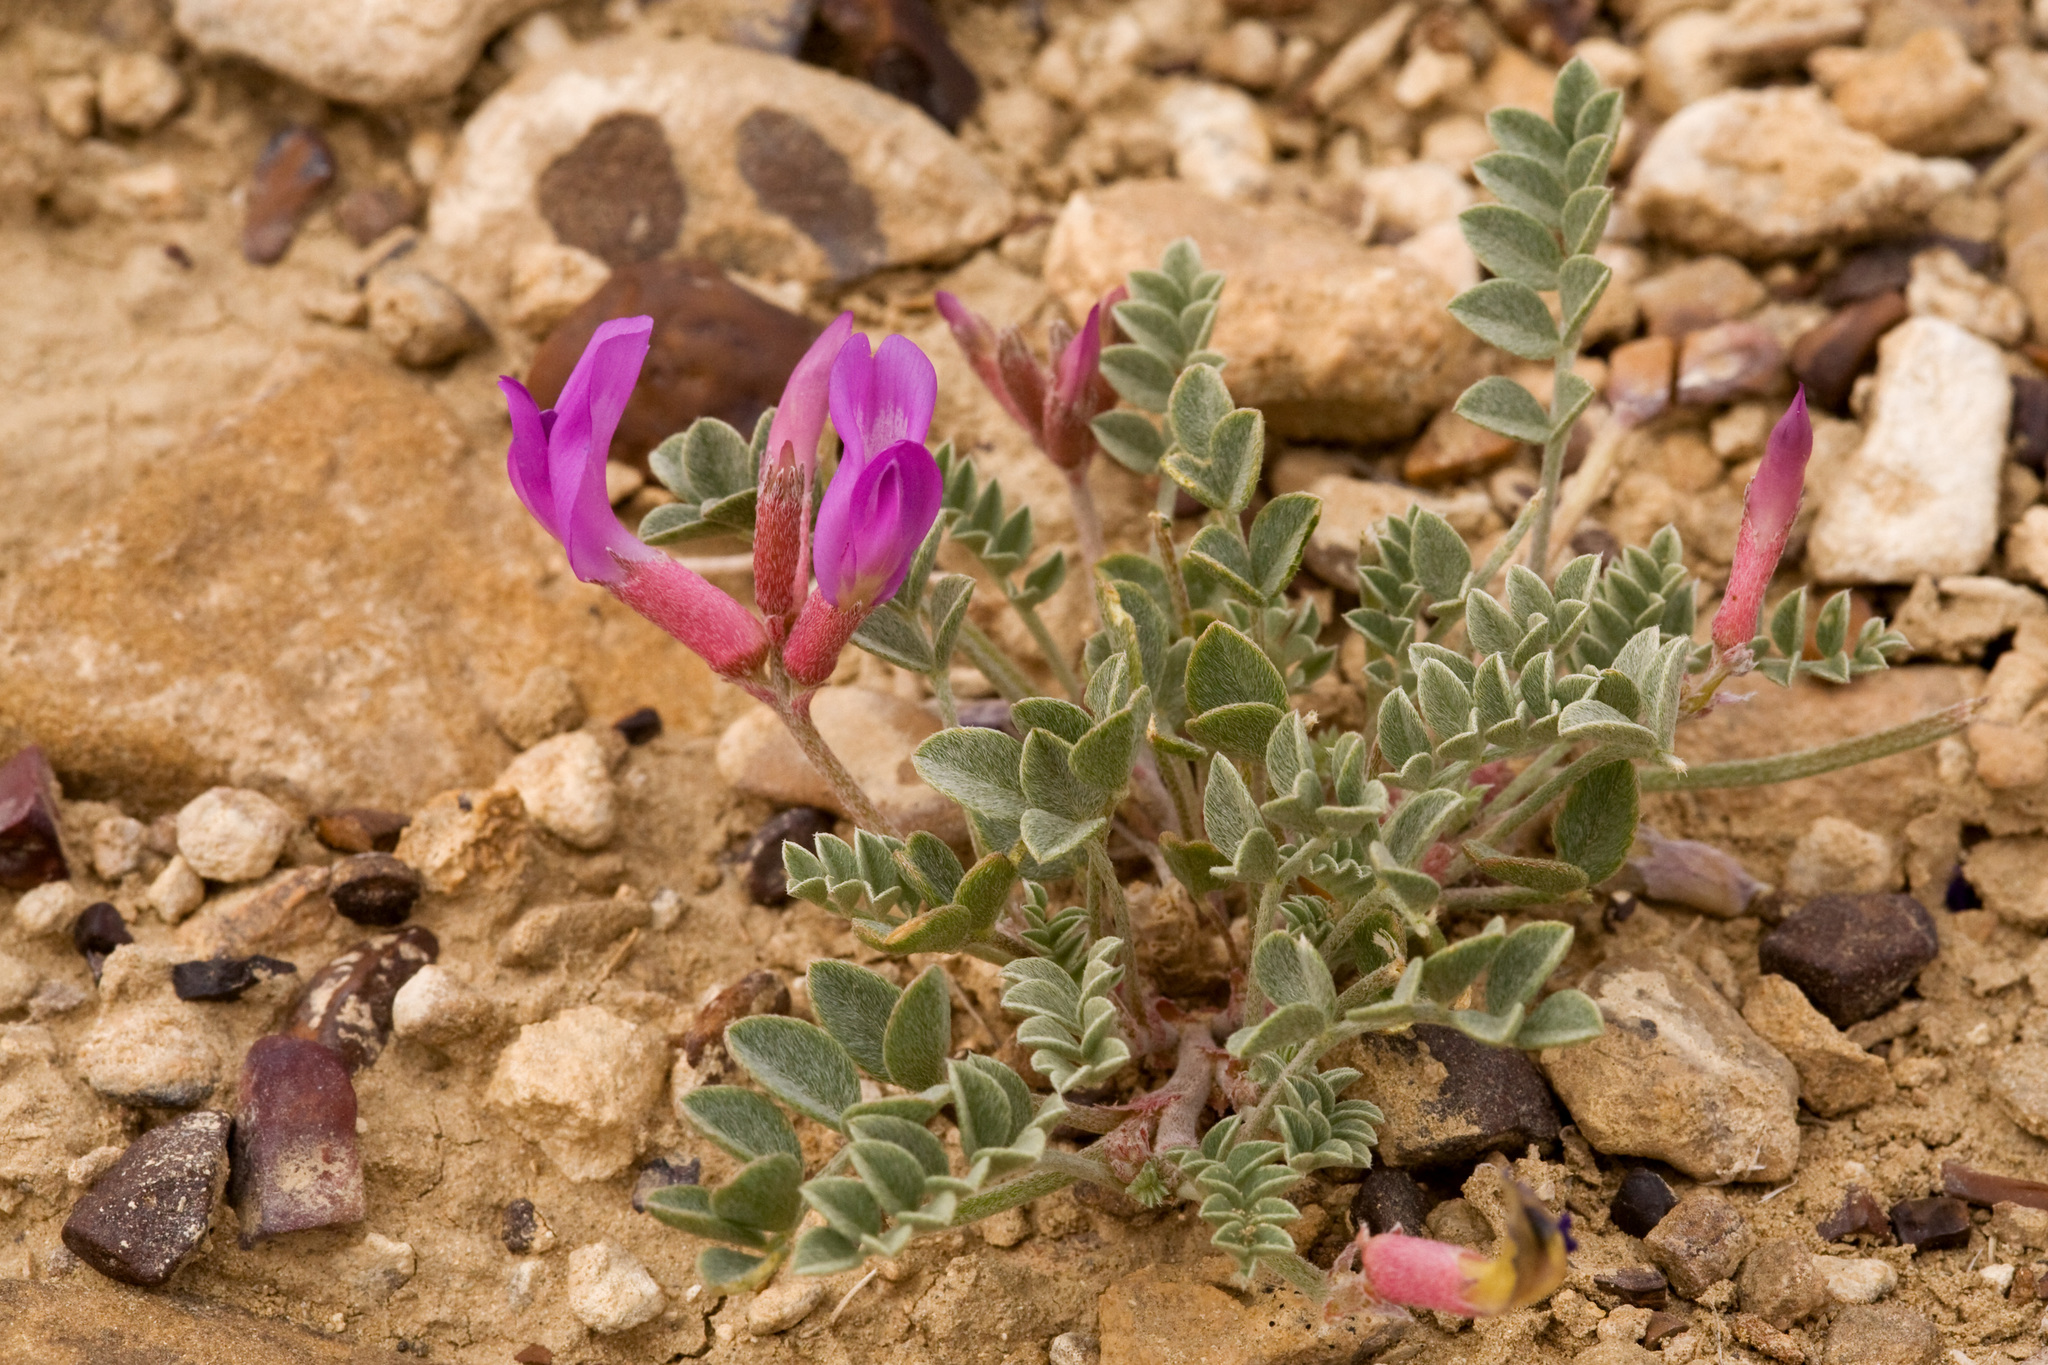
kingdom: Plantae
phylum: Tracheophyta
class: Magnoliopsida
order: Fabales
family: Fabaceae
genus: Astragalus
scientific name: Astragalus amphioxys
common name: Crescent milk-vetch
